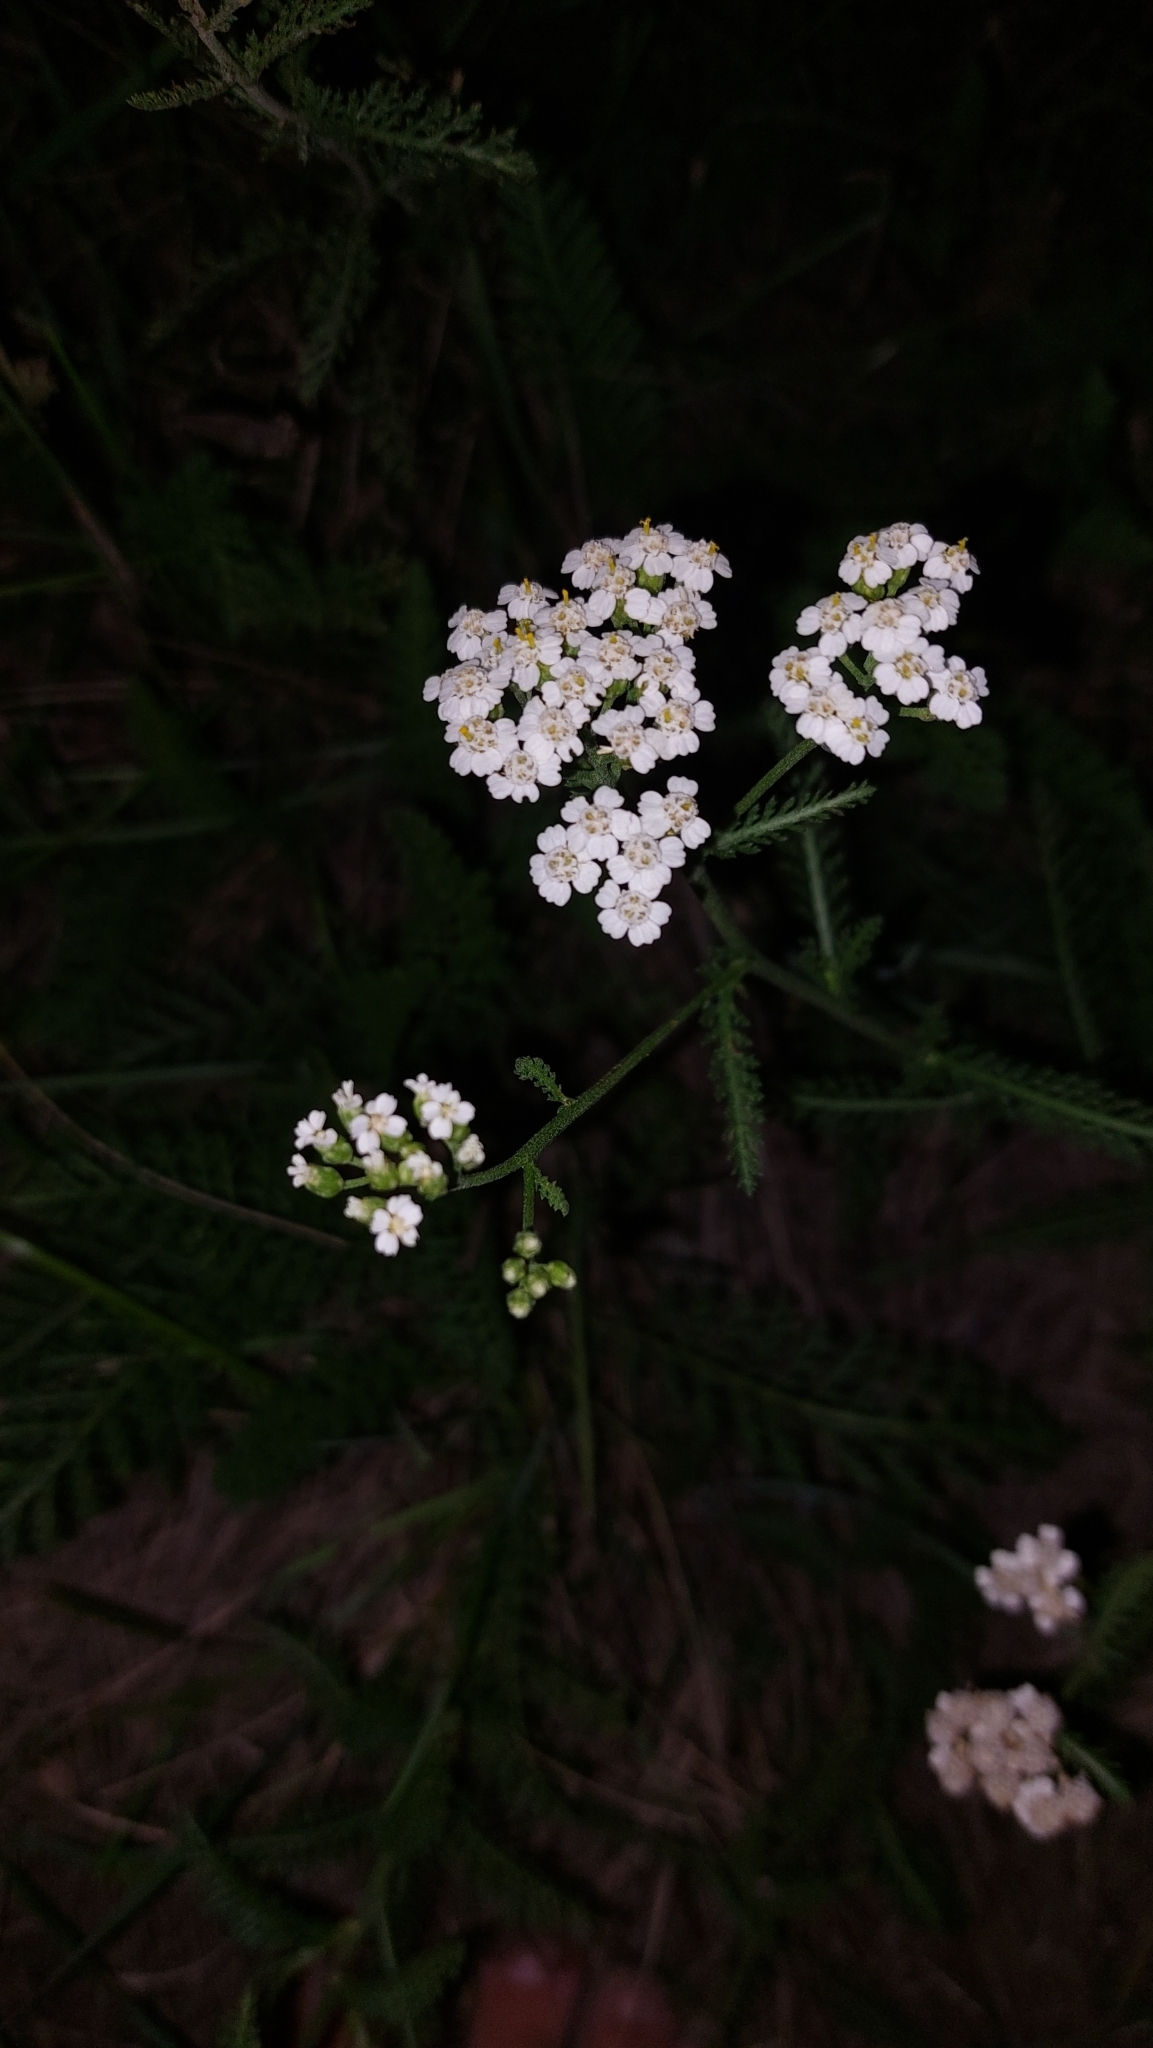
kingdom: Plantae
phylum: Tracheophyta
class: Magnoliopsida
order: Asterales
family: Asteraceae
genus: Achillea
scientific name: Achillea millefolium
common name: Yarrow
